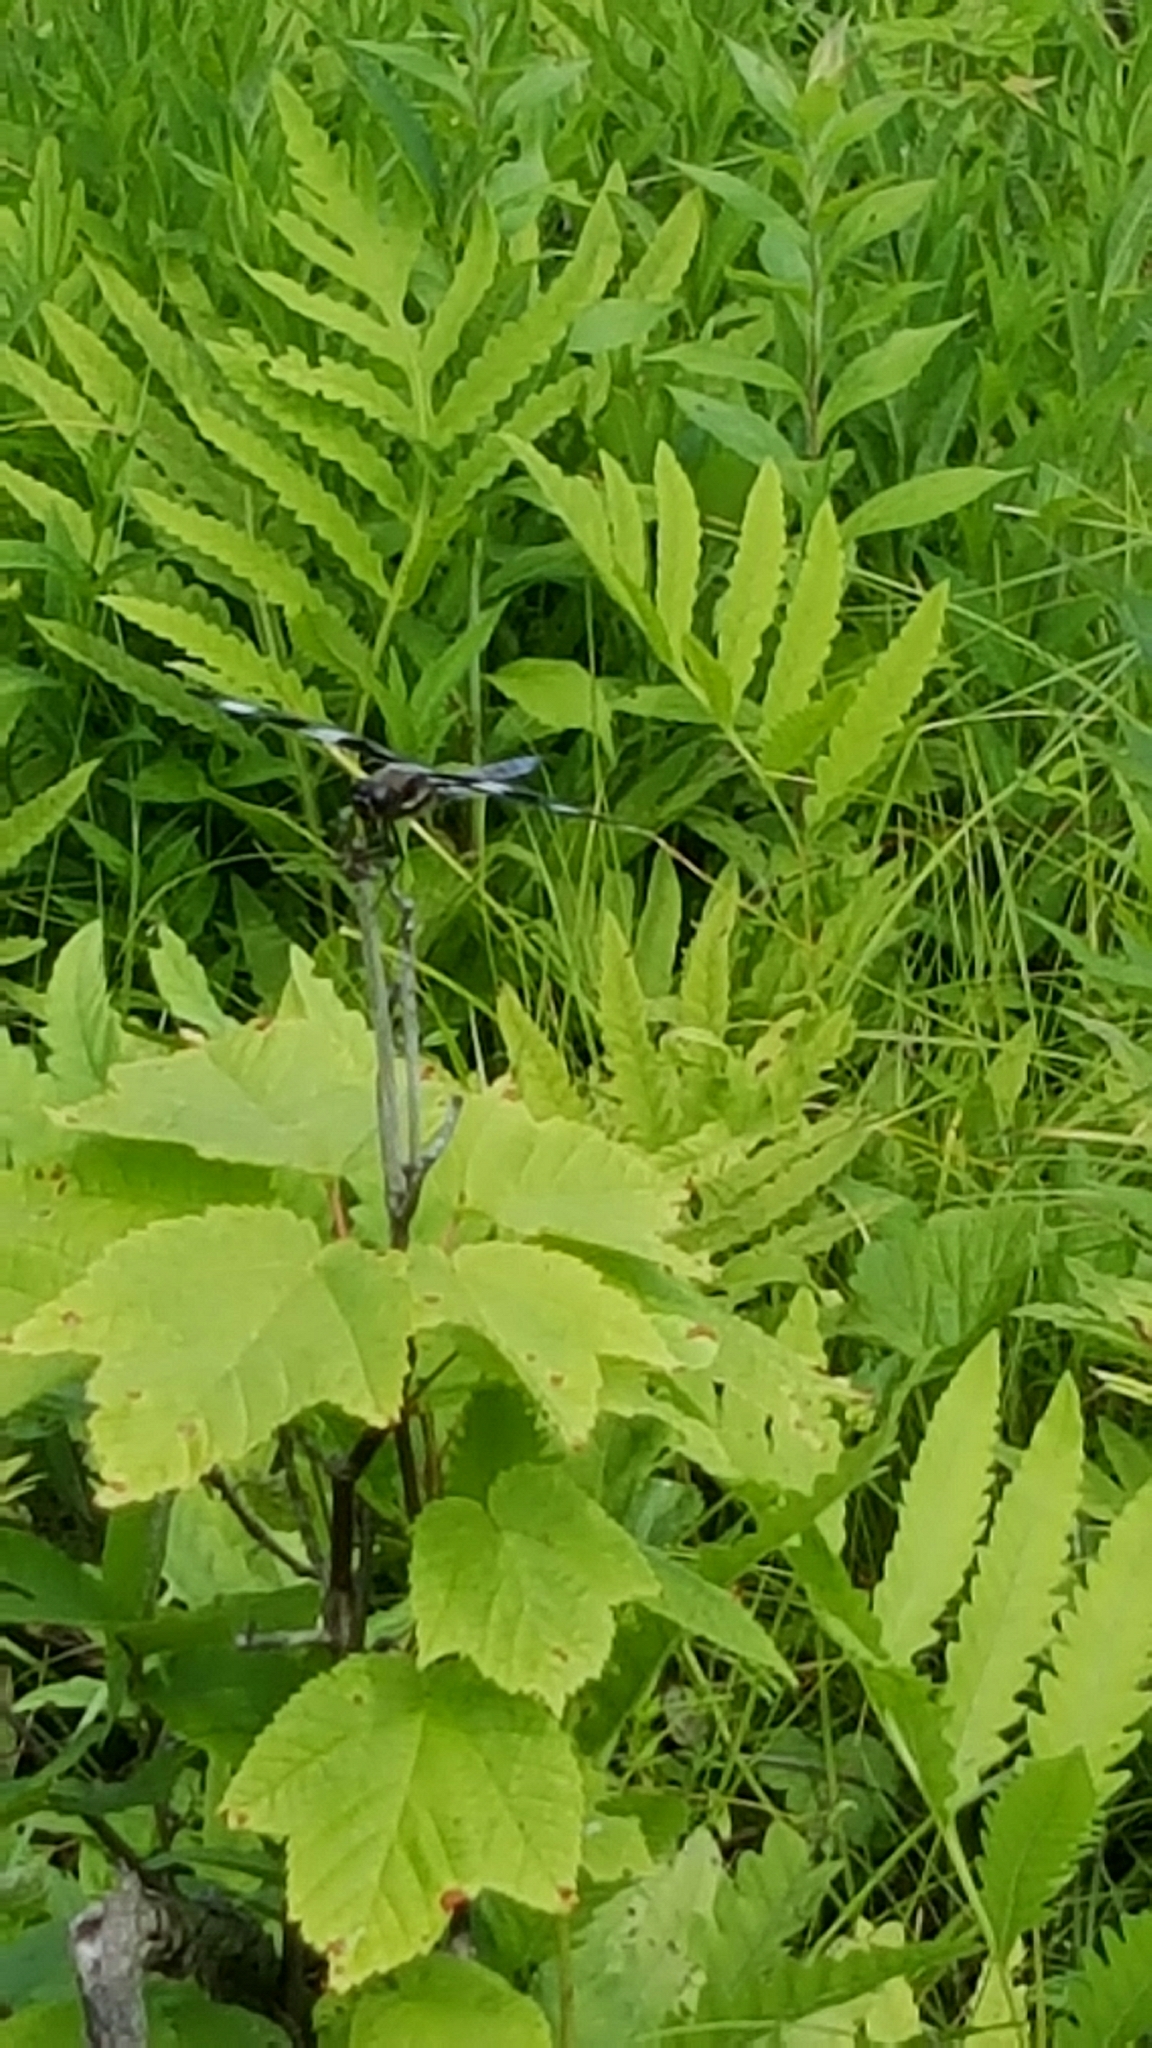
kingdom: Animalia
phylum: Arthropoda
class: Insecta
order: Odonata
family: Libellulidae
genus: Libellula
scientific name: Libellula pulchella
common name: Twelve-spotted skimmer
